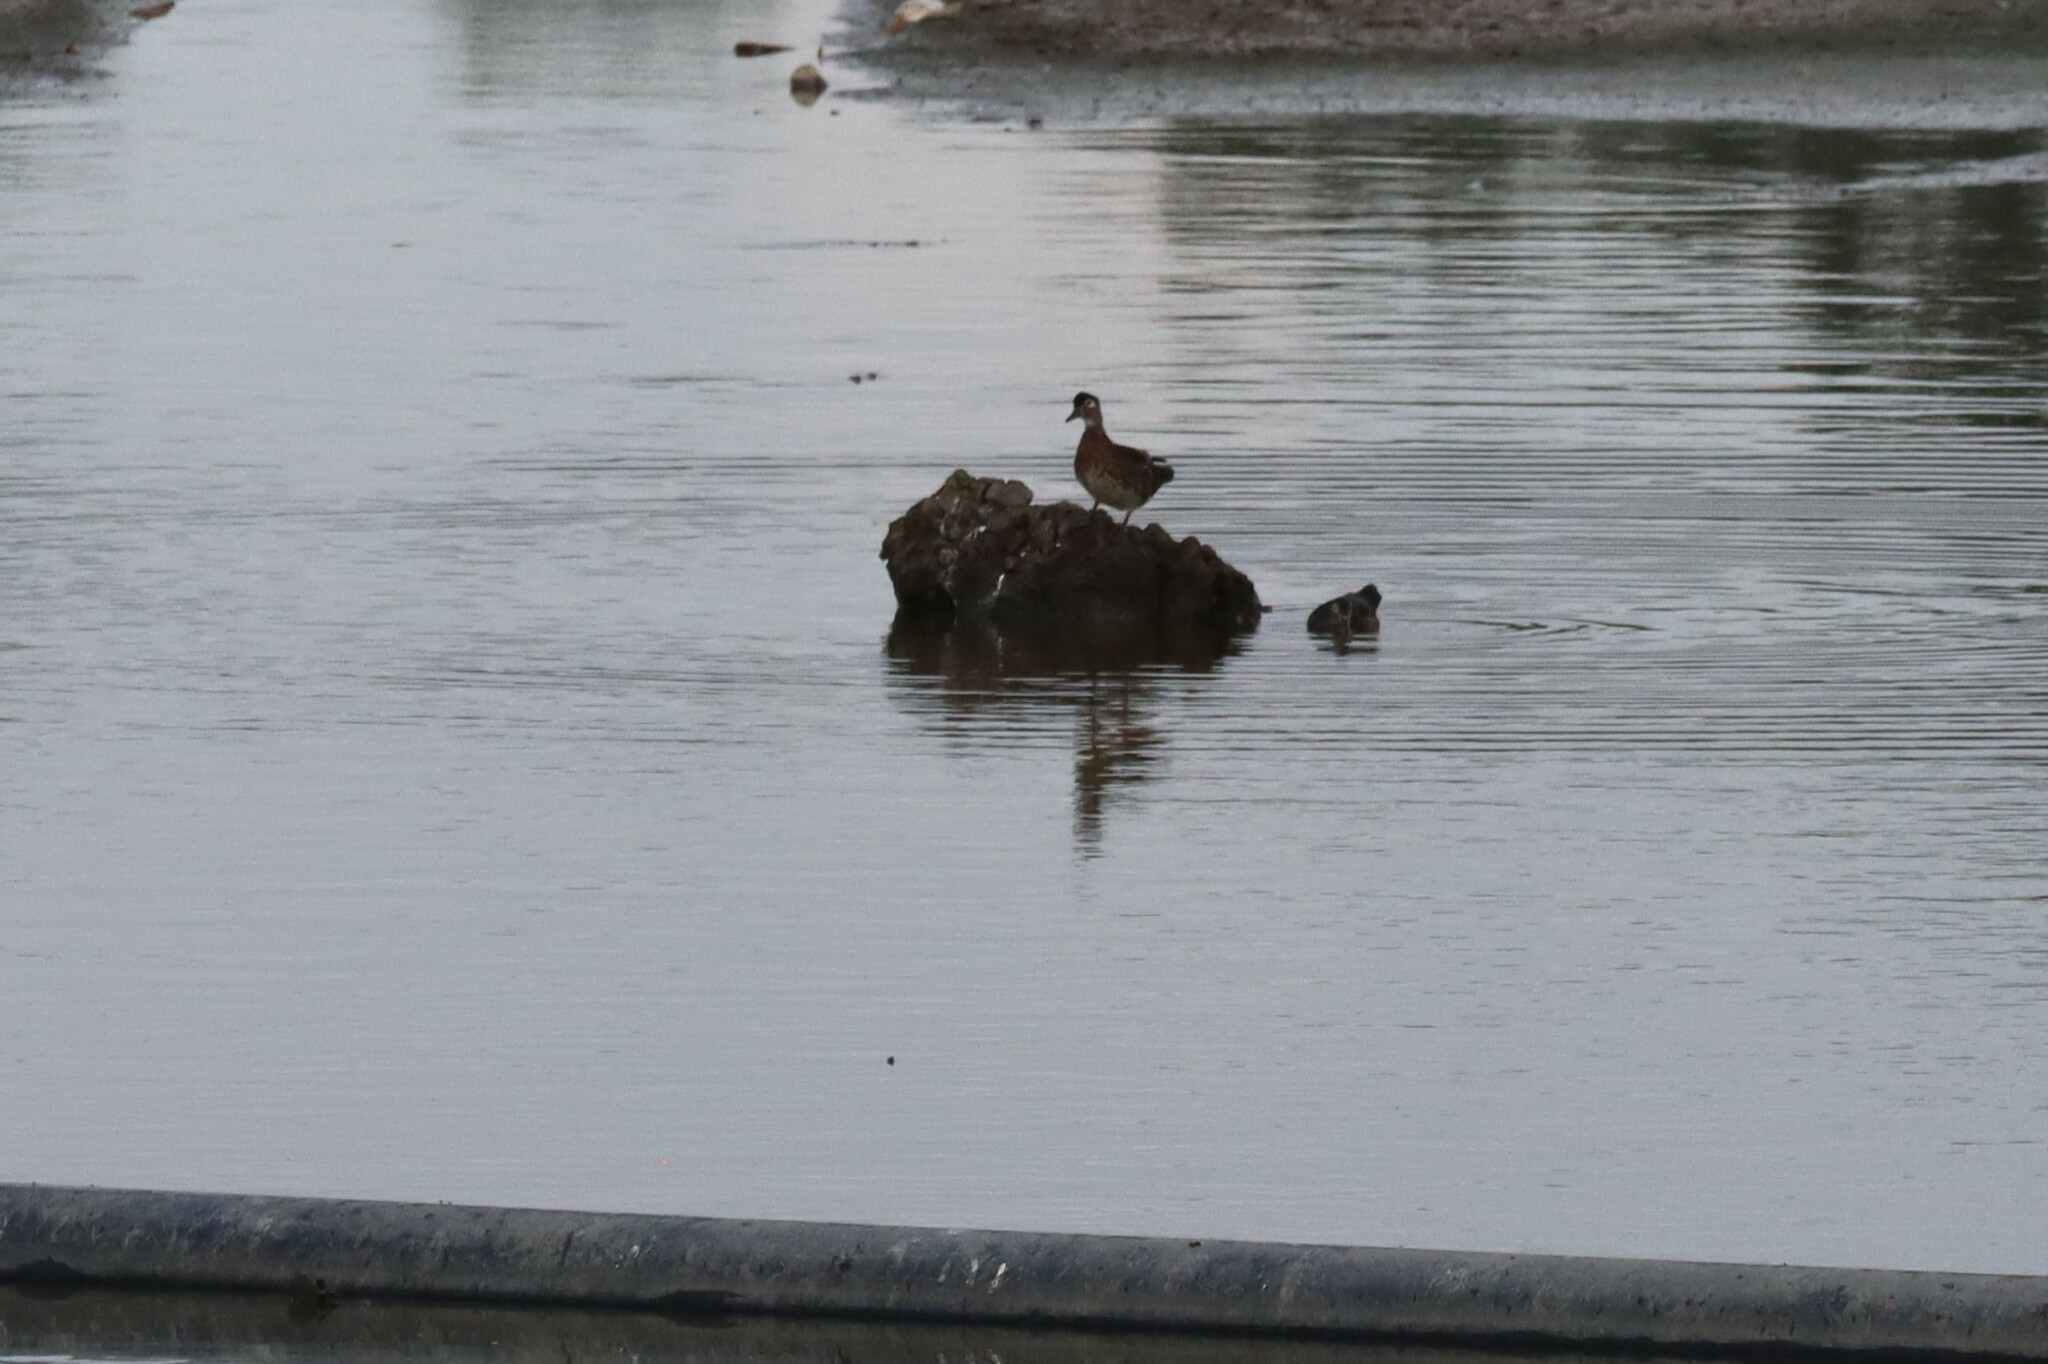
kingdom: Animalia
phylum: Chordata
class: Aves
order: Anseriformes
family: Anatidae
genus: Aix
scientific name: Aix sponsa
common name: Wood duck
